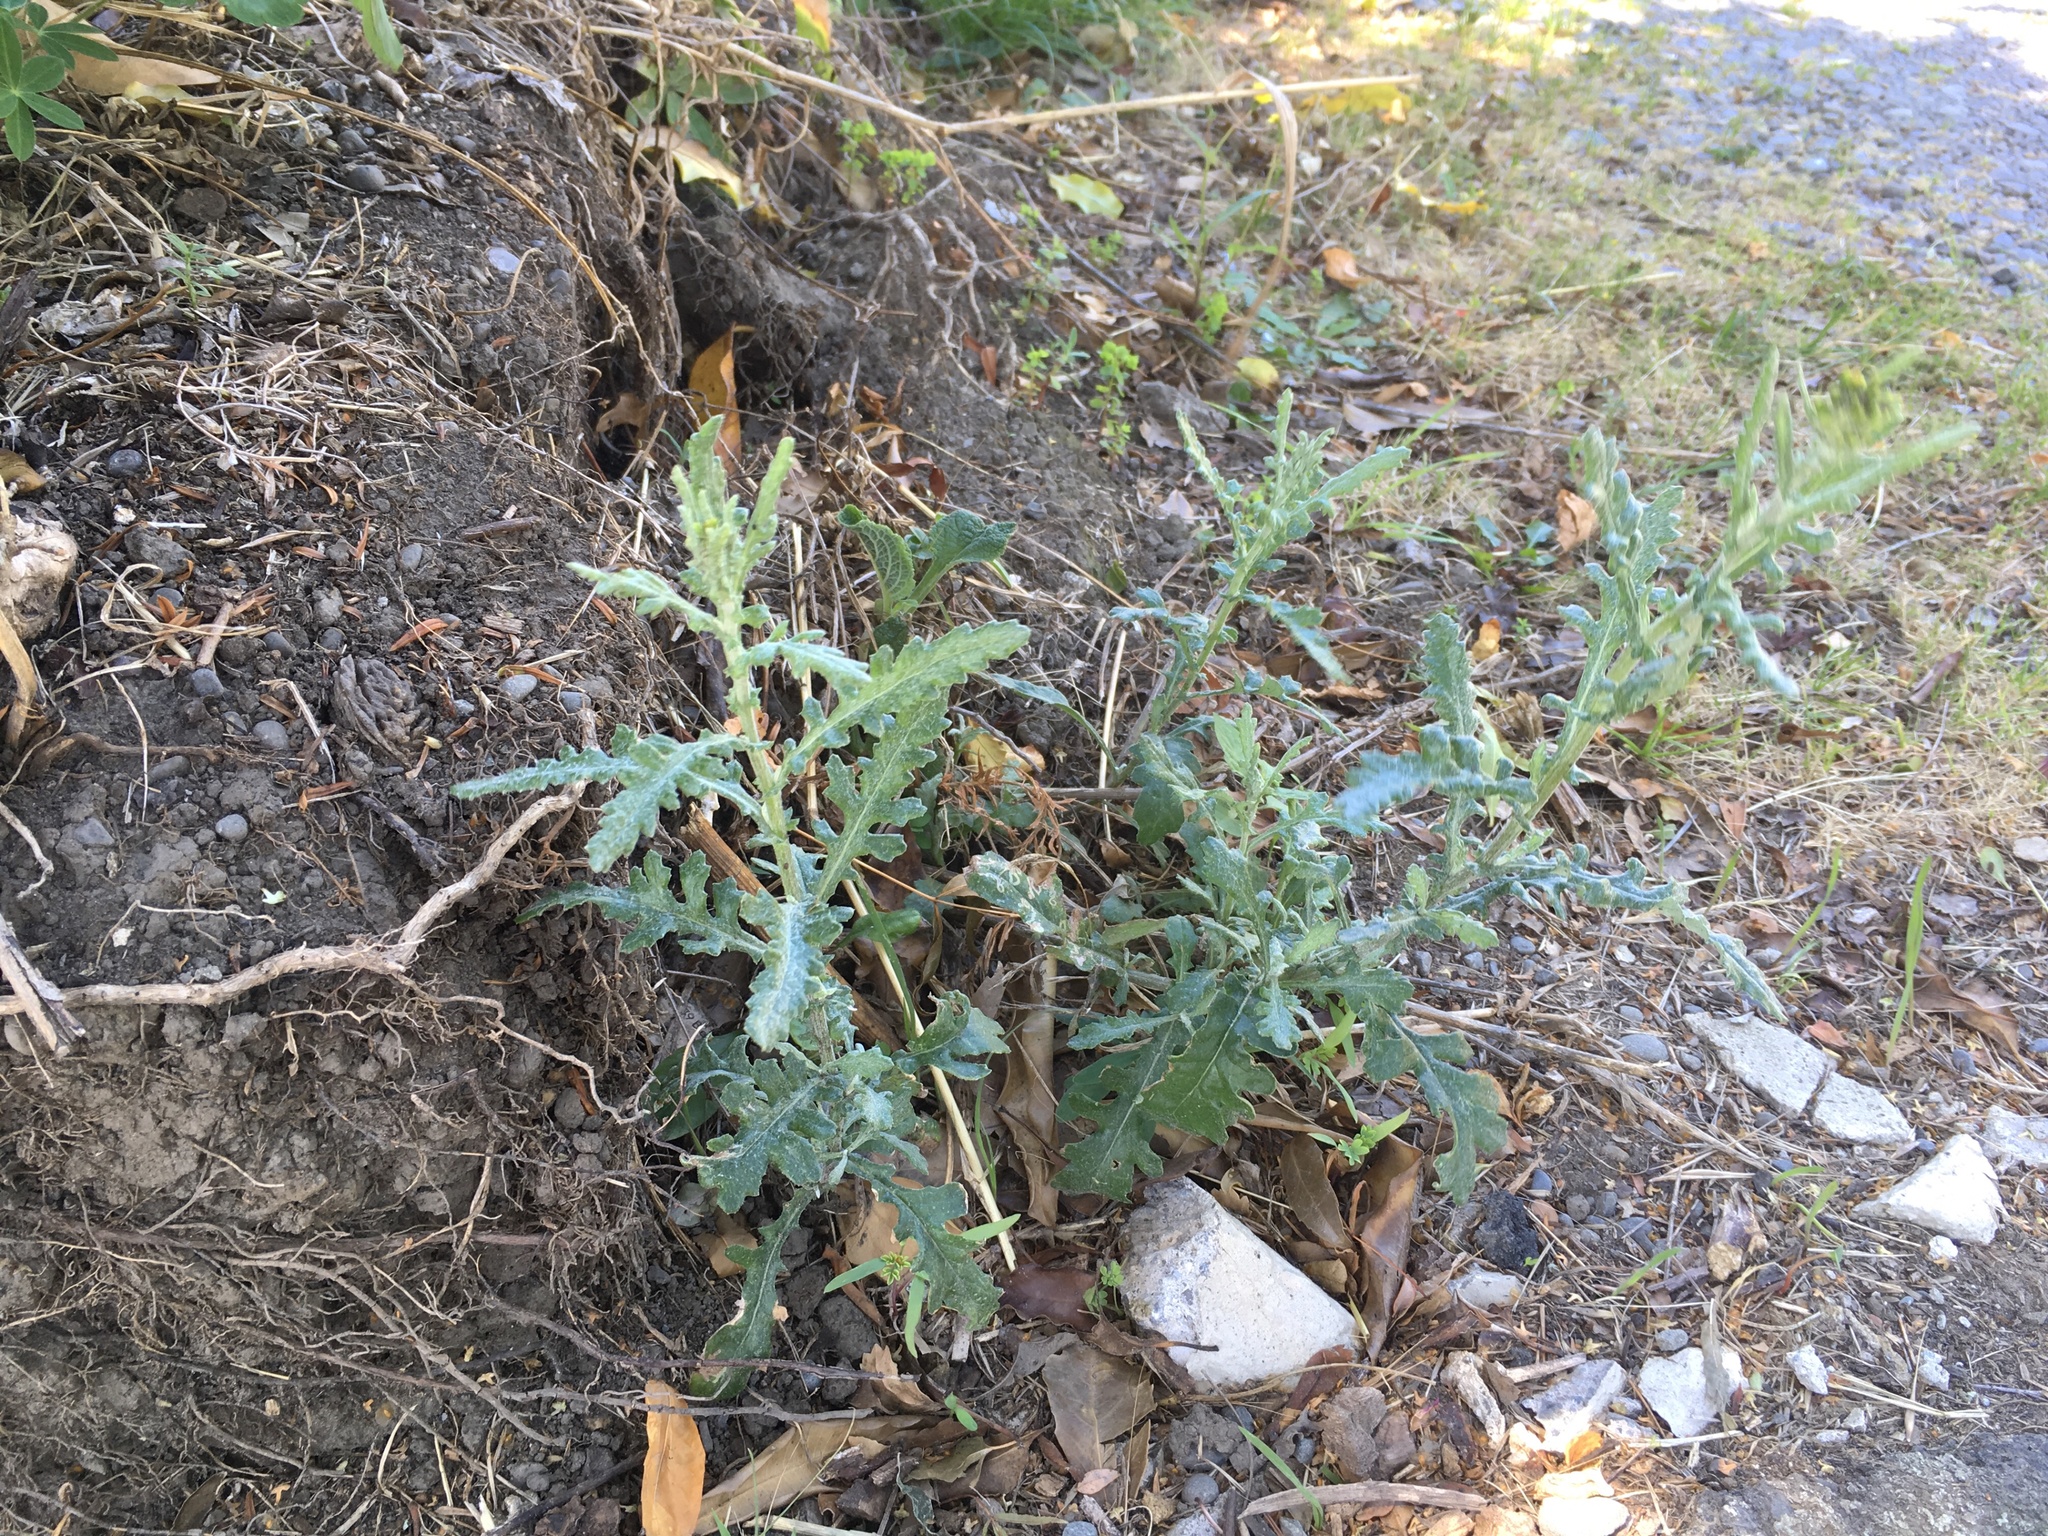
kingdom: Plantae
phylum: Tracheophyta
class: Magnoliopsida
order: Asterales
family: Asteraceae
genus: Senecio
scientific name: Senecio glomeratus
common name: Cutleaf burnweed
